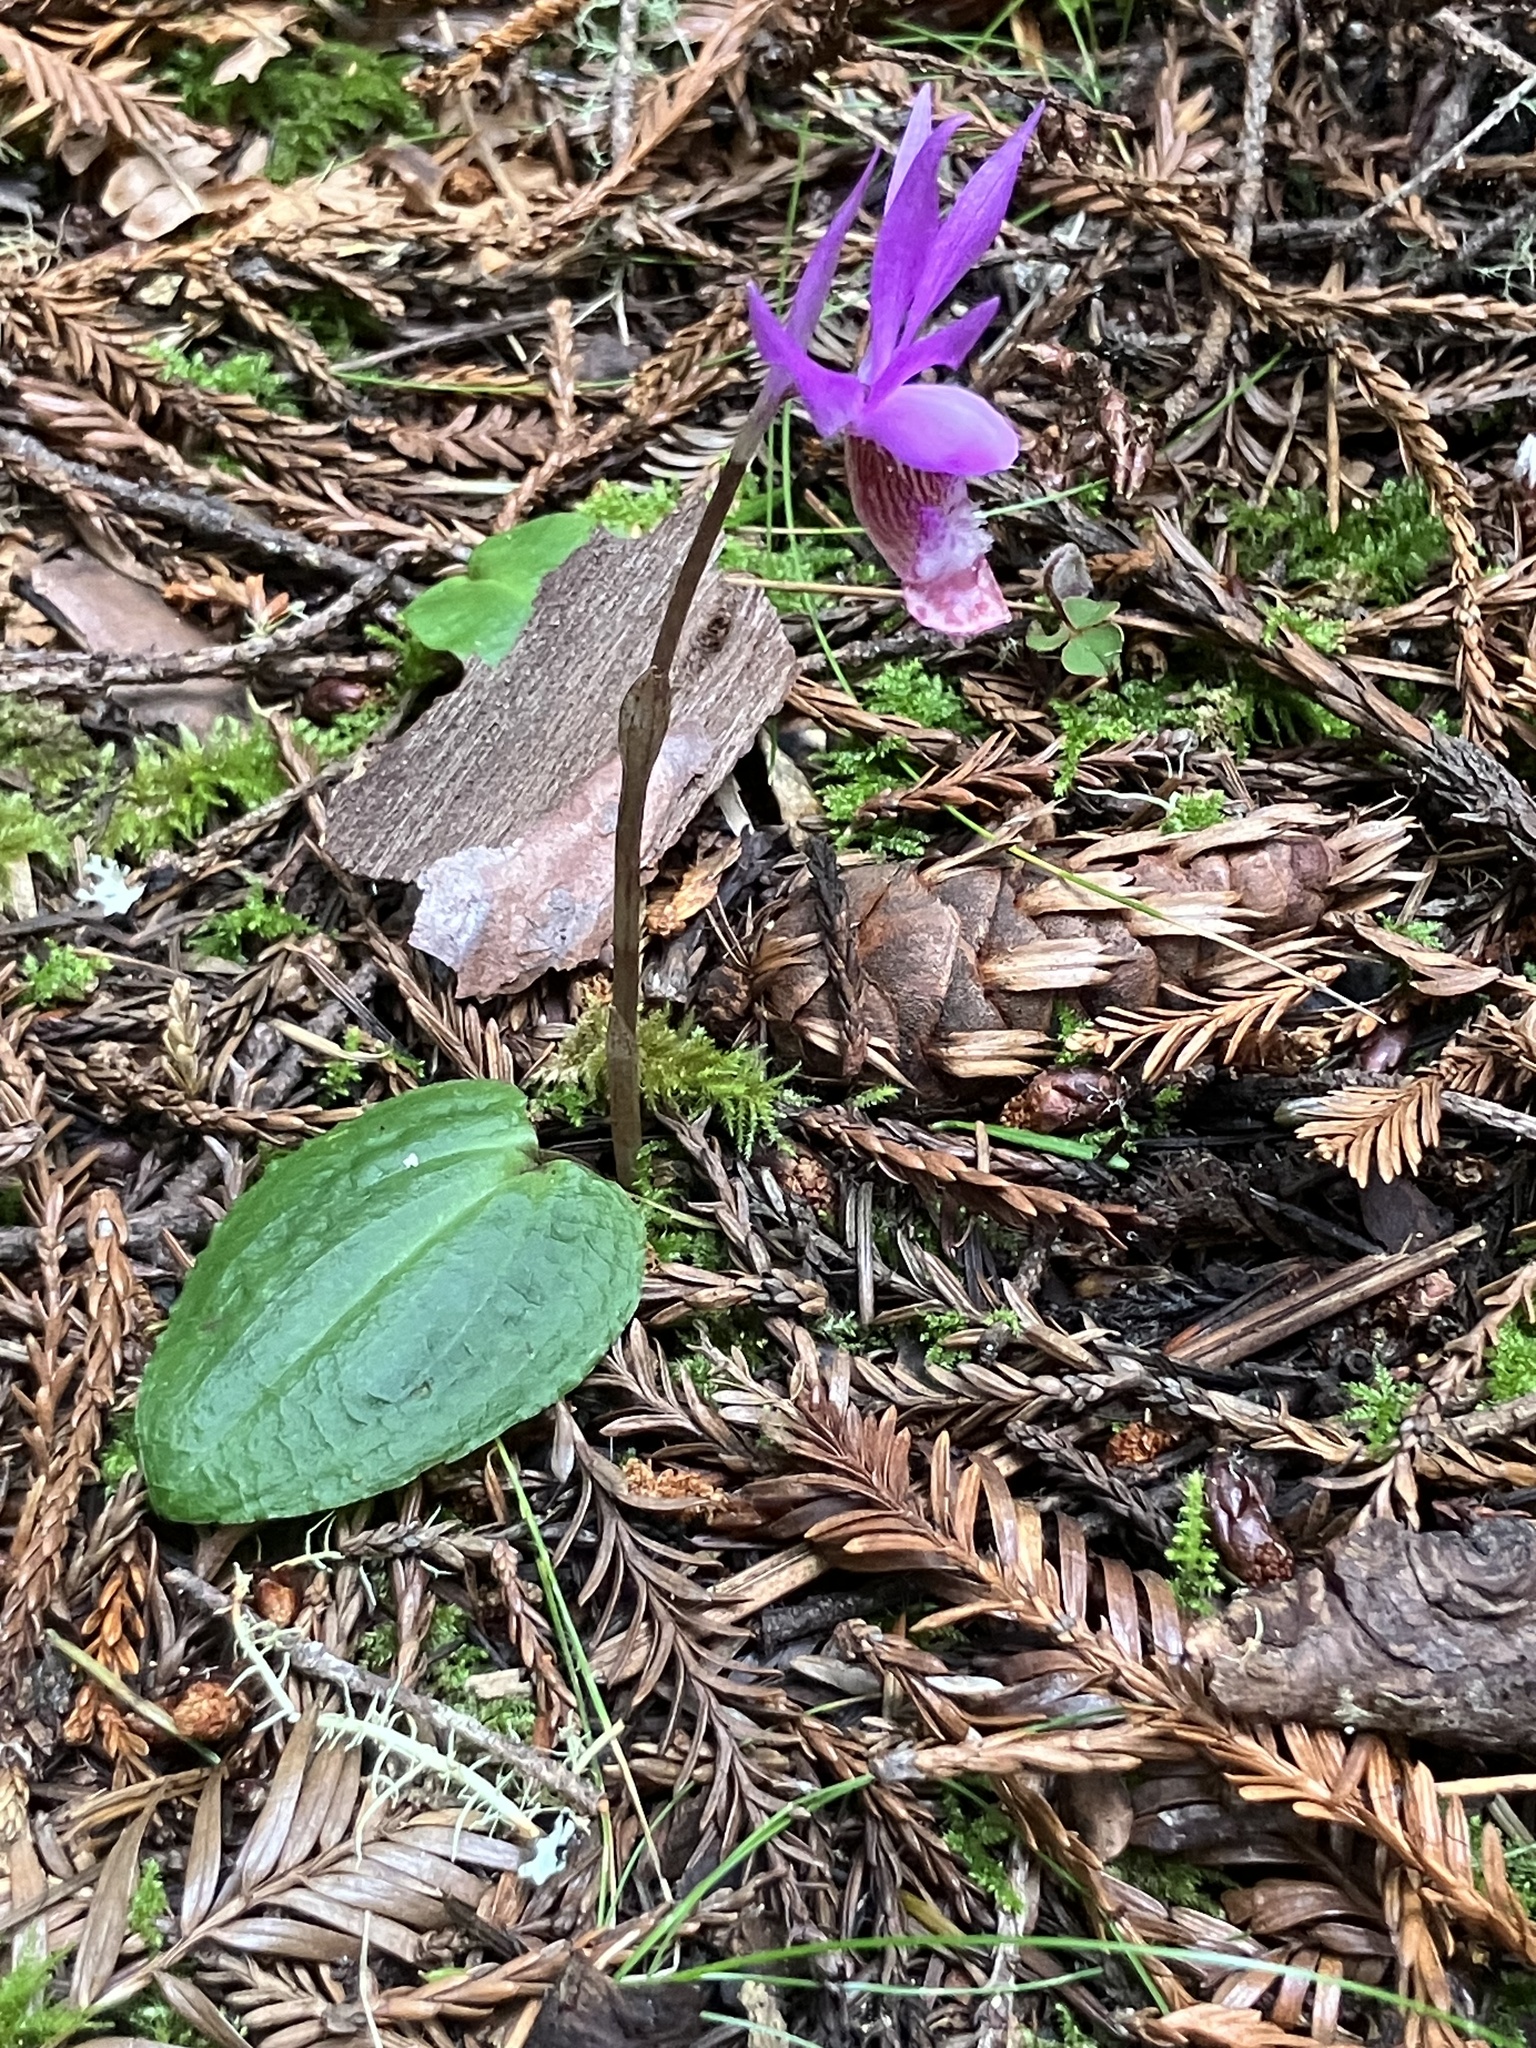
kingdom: Plantae
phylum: Tracheophyta
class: Liliopsida
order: Asparagales
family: Orchidaceae
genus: Calypso
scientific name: Calypso bulbosa
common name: Calypso
